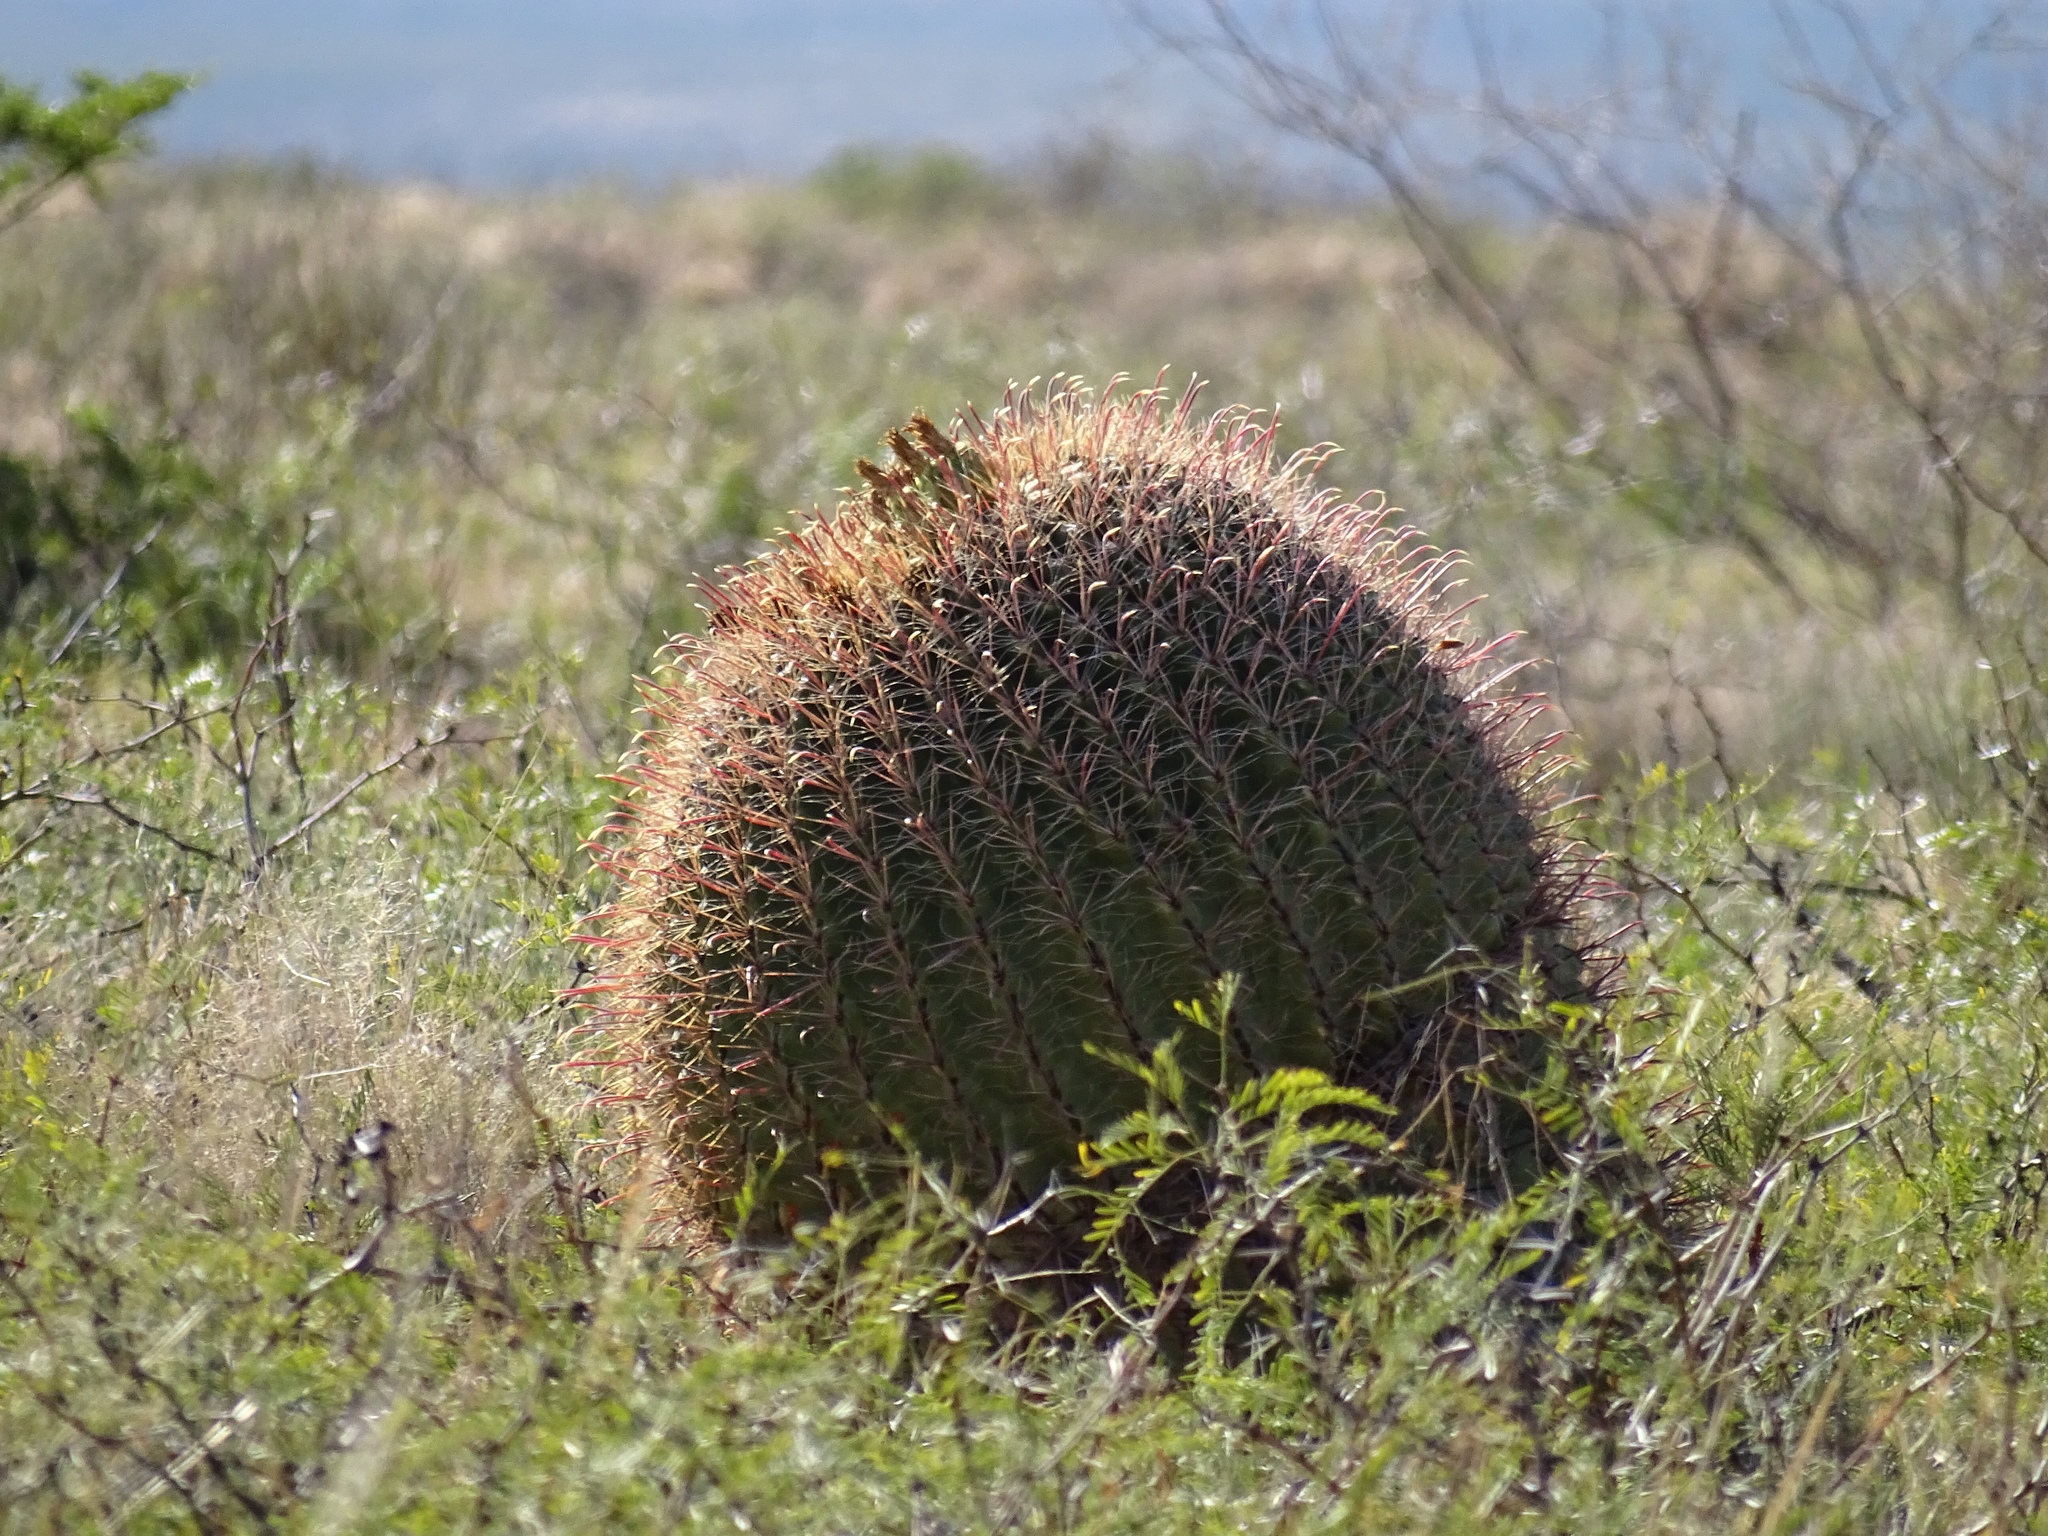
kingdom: Plantae
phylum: Tracheophyta
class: Magnoliopsida
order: Caryophyllales
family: Cactaceae
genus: Ferocactus
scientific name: Ferocactus wislizeni
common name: Candy barrel cactus
